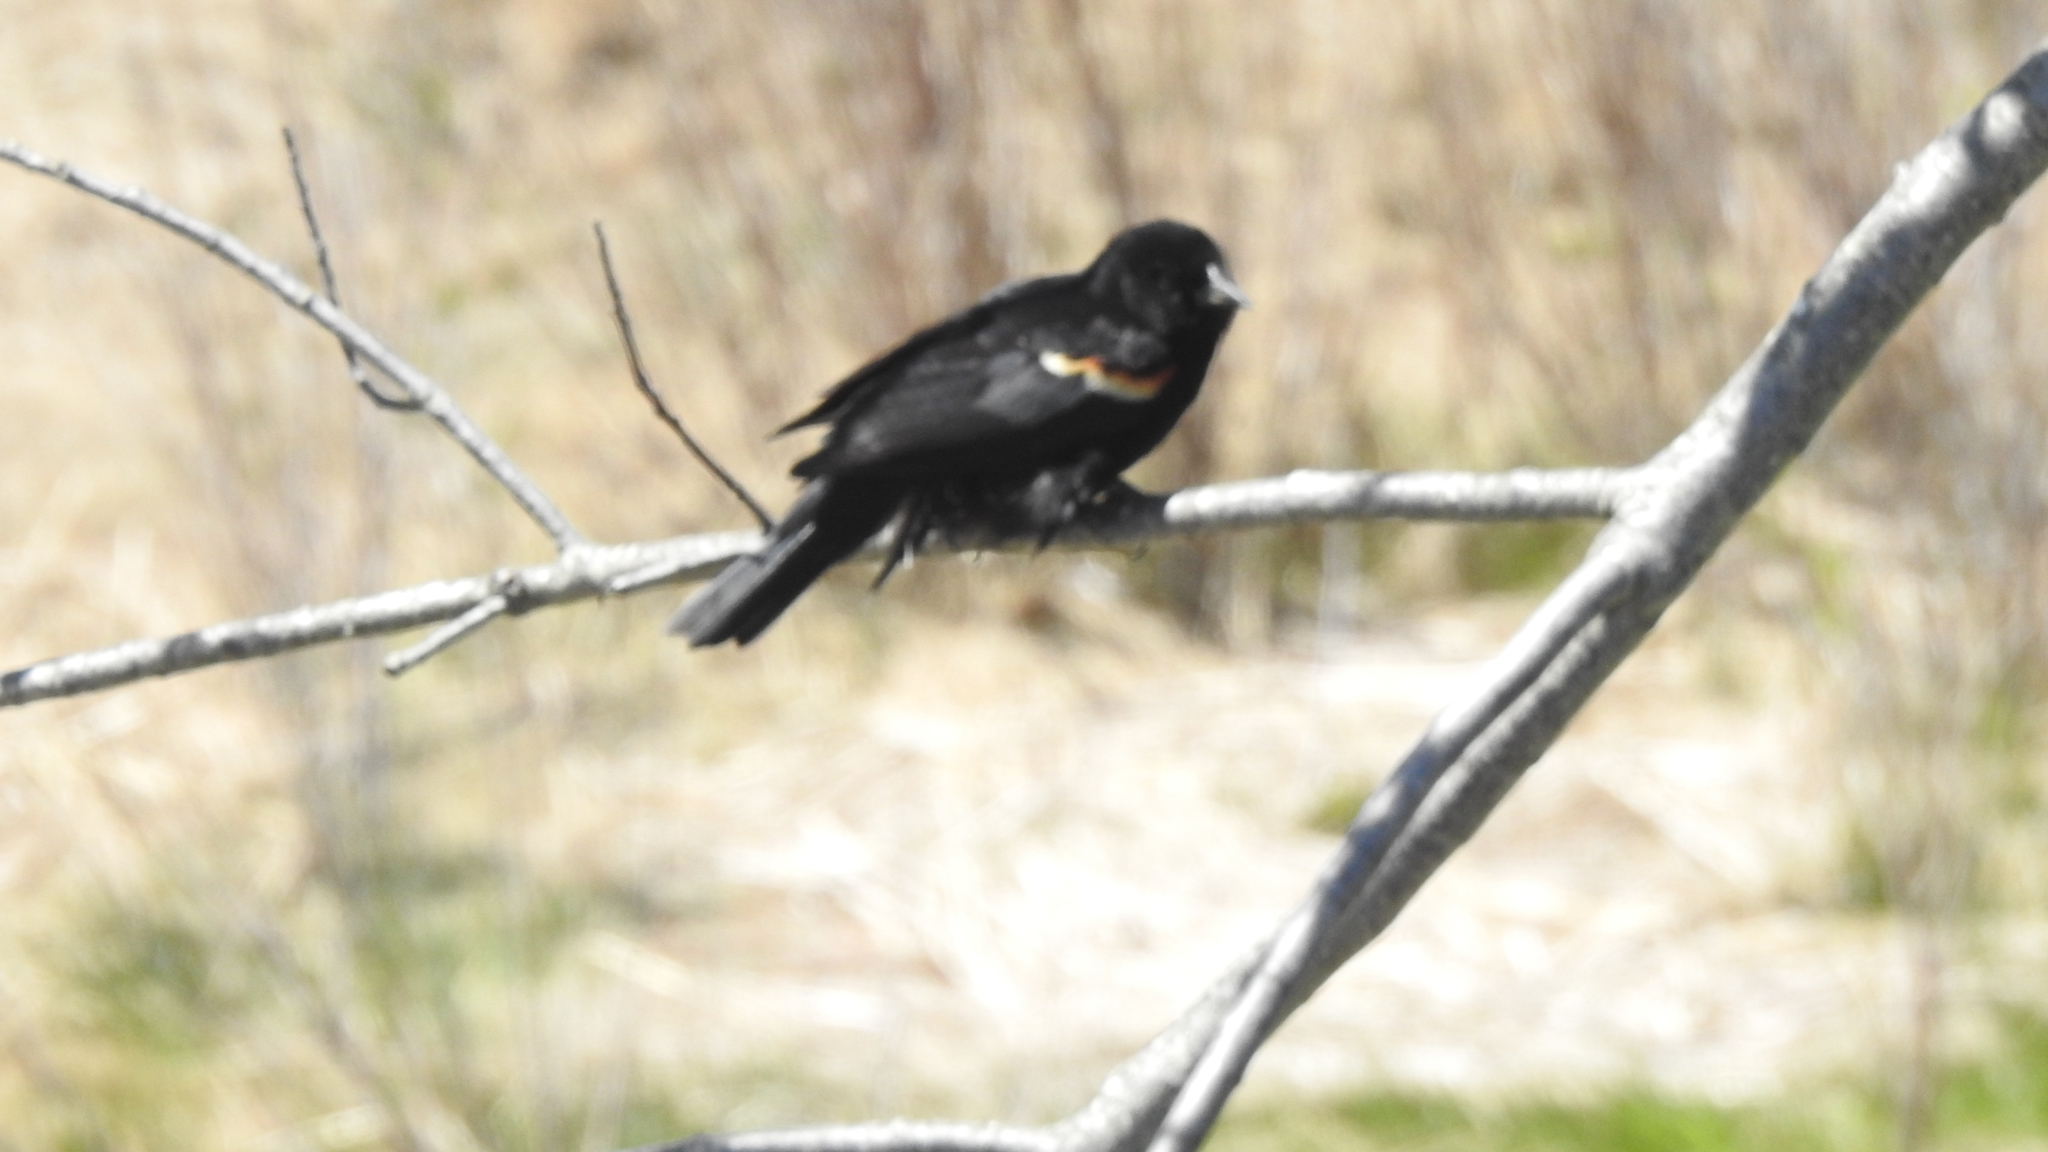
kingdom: Animalia
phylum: Chordata
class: Aves
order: Passeriformes
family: Icteridae
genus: Agelaius
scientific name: Agelaius phoeniceus
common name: Red-winged blackbird
